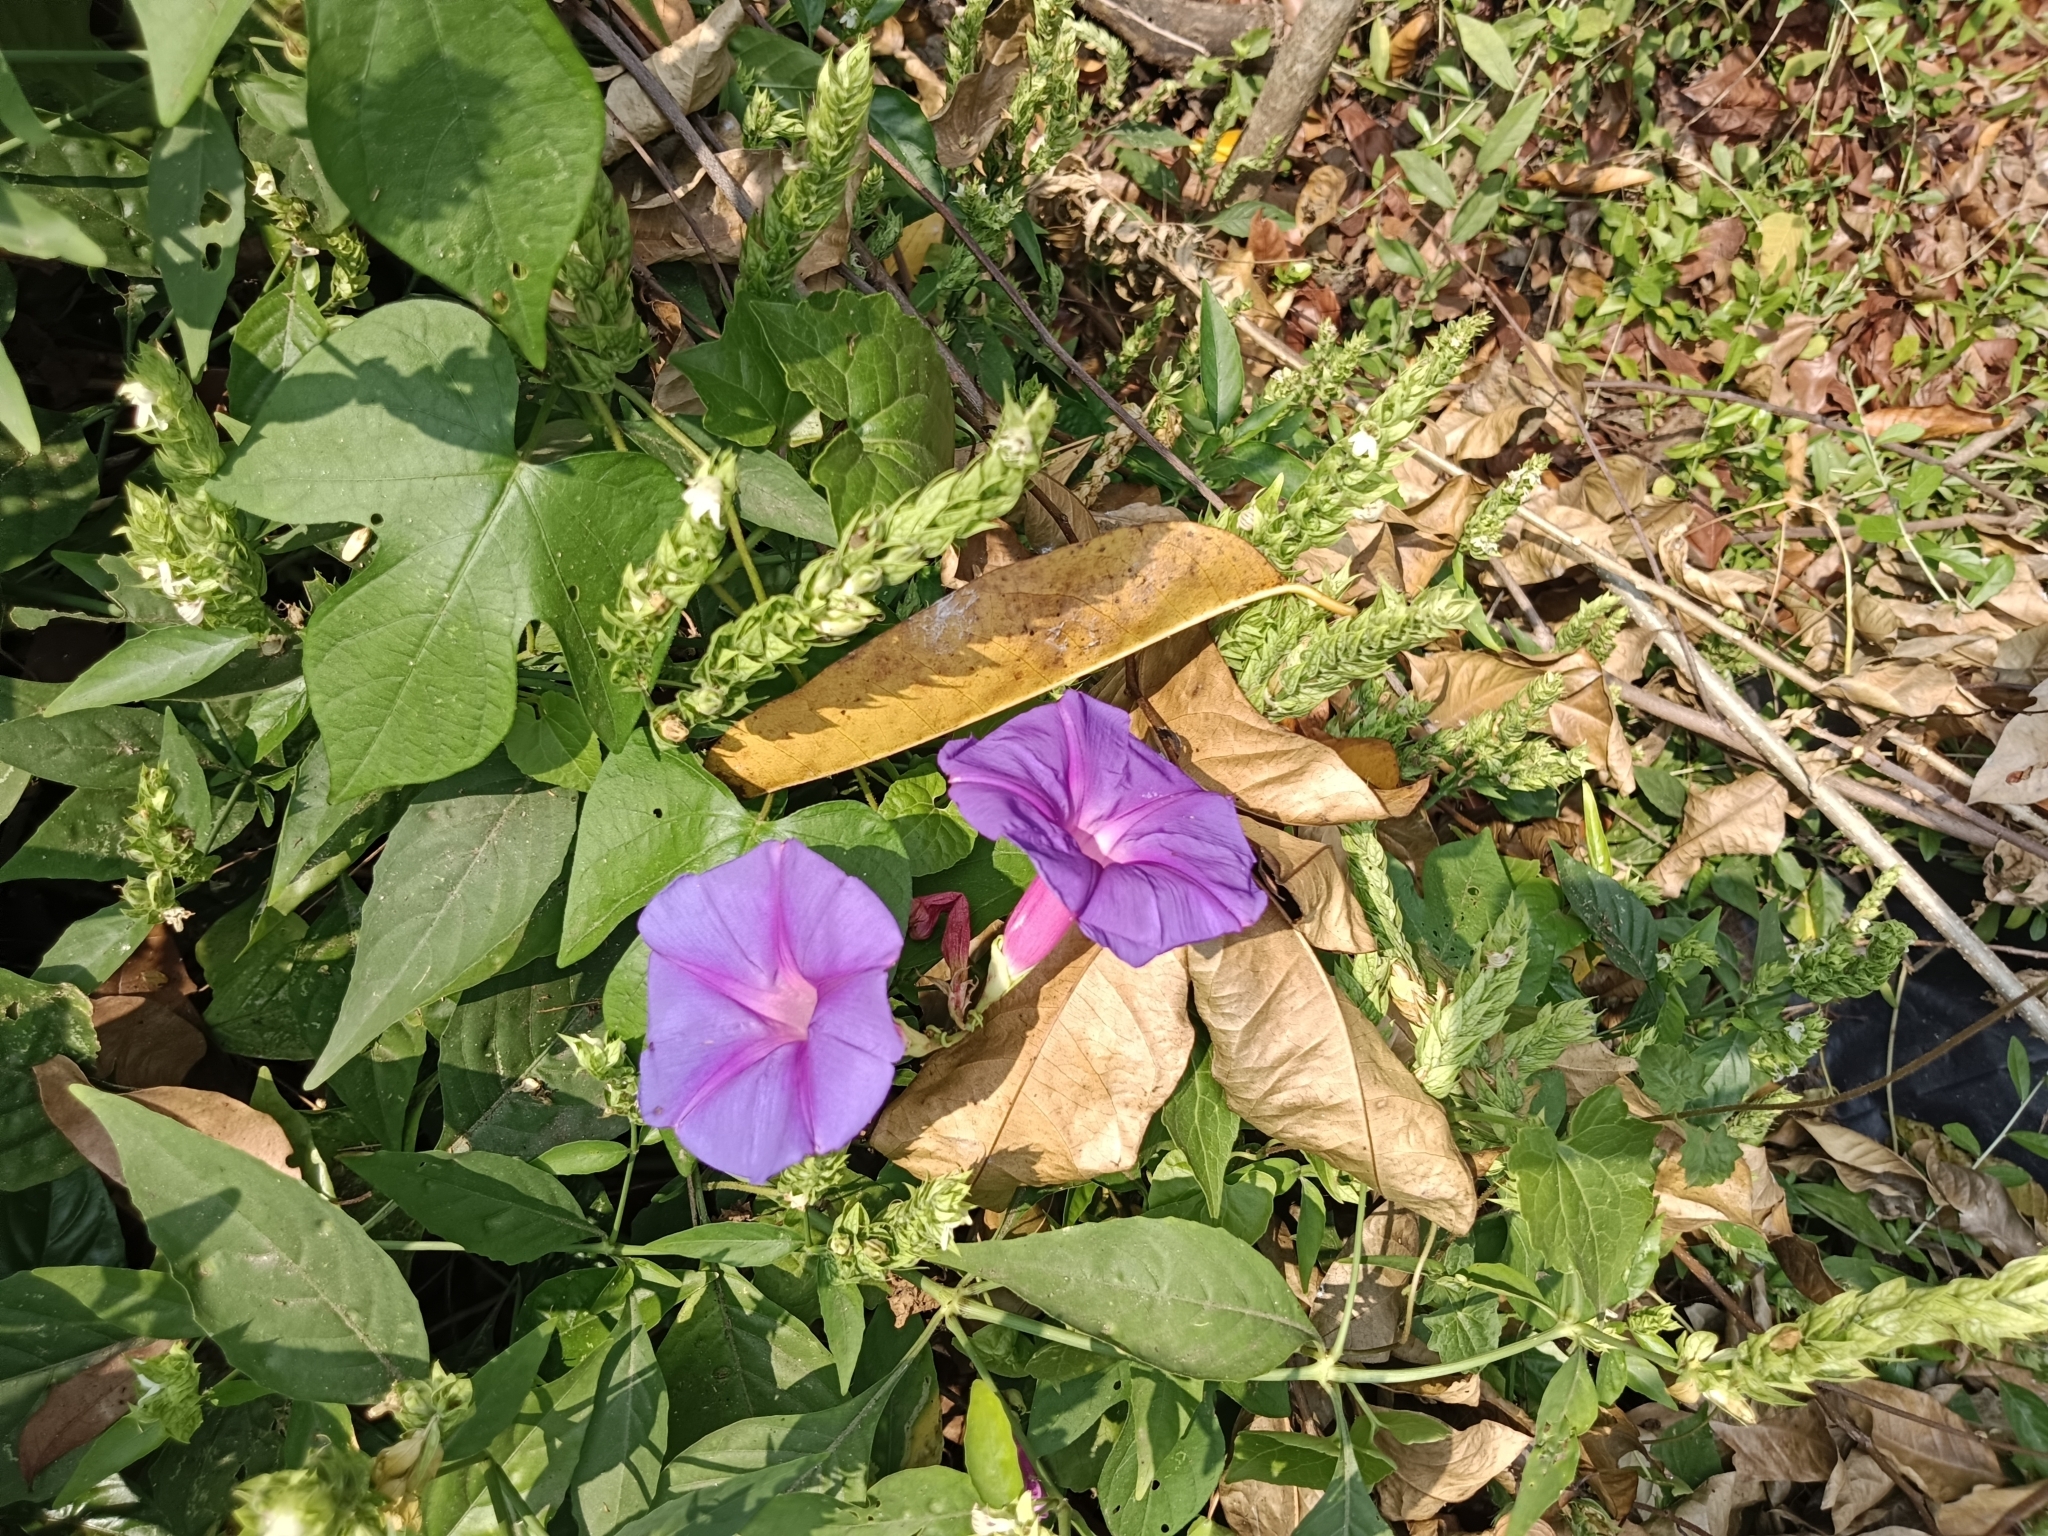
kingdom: Plantae
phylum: Tracheophyta
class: Magnoliopsida
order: Solanales
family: Convolvulaceae
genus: Ipomoea
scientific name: Ipomoea indica
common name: Blue dawnflower
